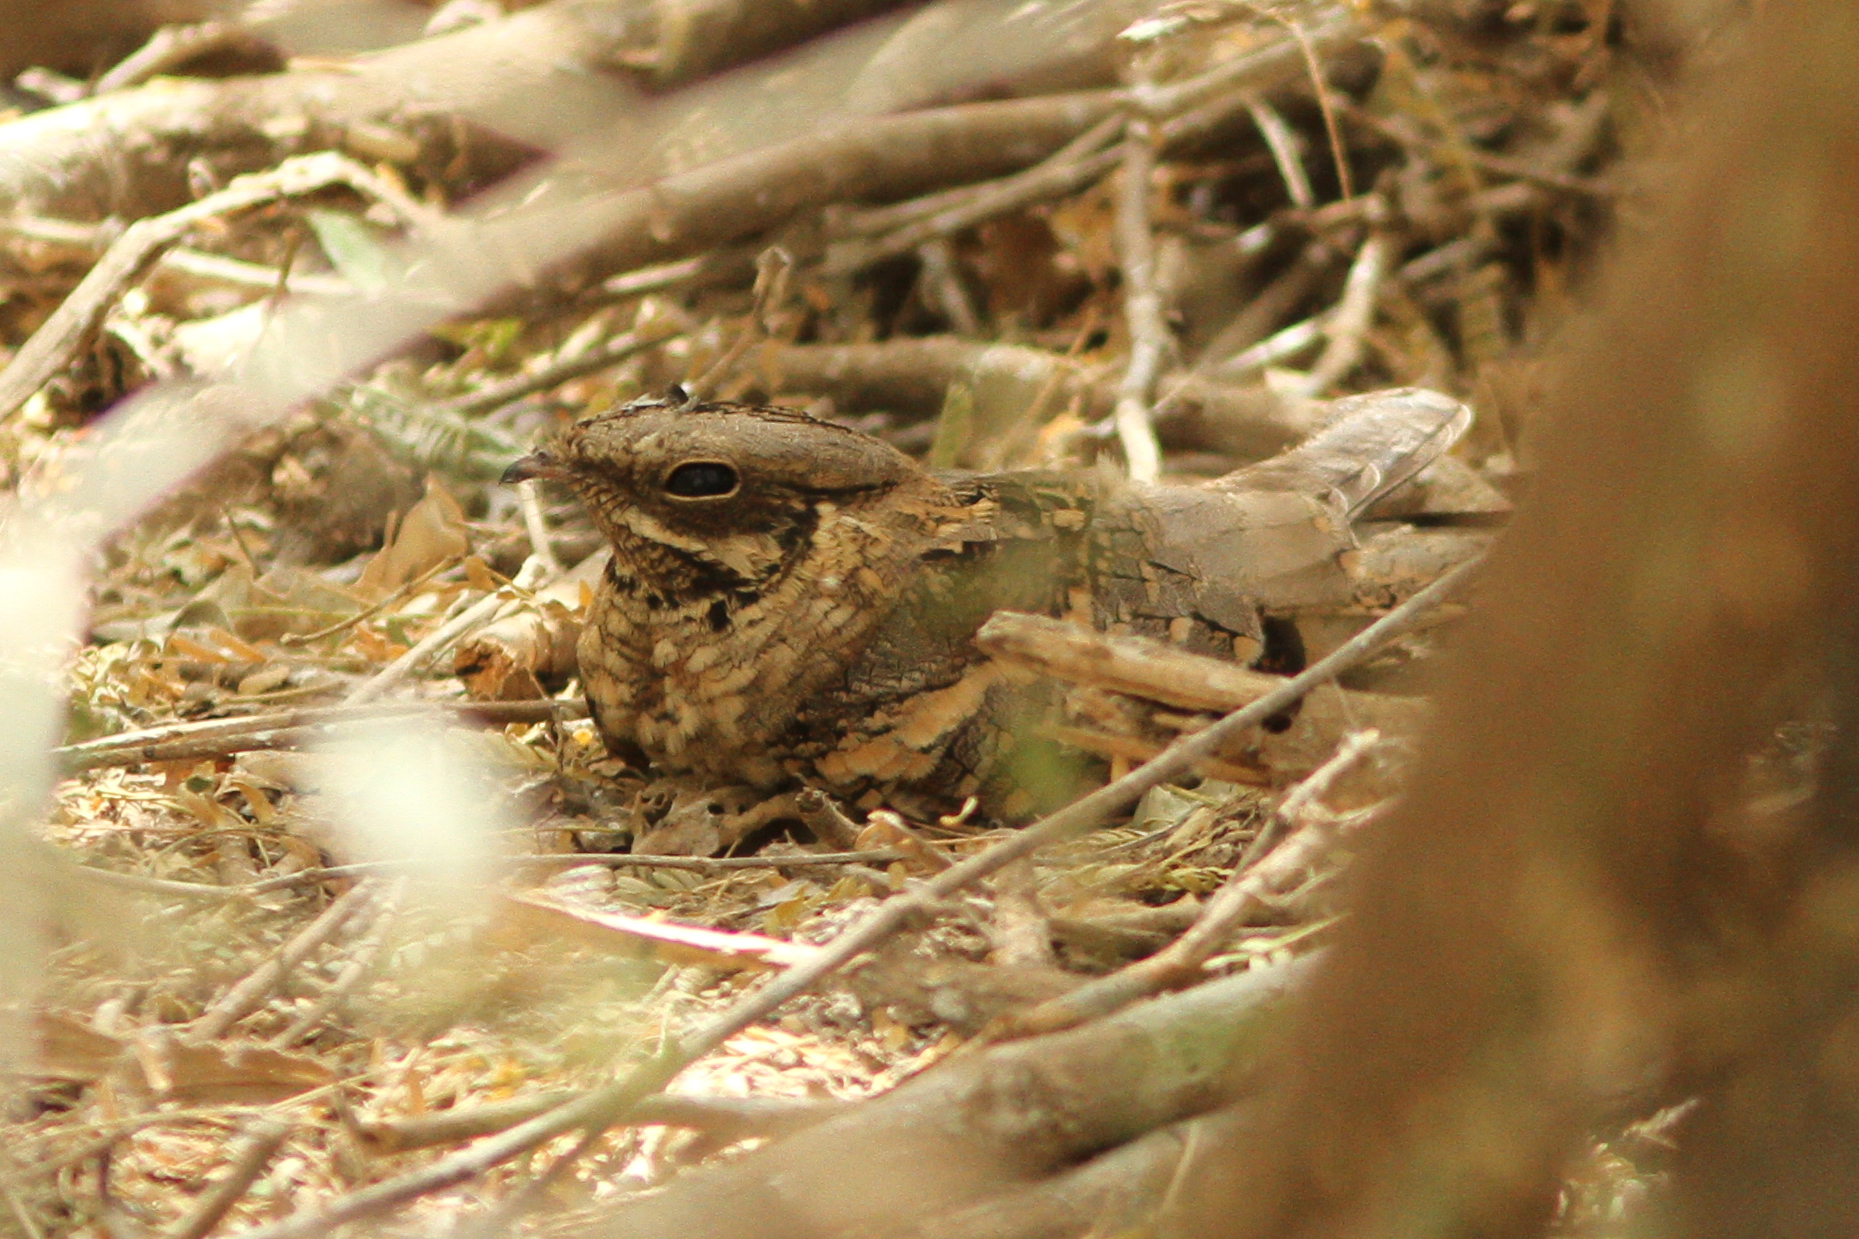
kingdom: Animalia
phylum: Chordata
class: Aves
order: Caprimulgiformes
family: Caprimulgidae
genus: Caprimulgus
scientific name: Caprimulgus climacurus
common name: Long-tailed nightjar
